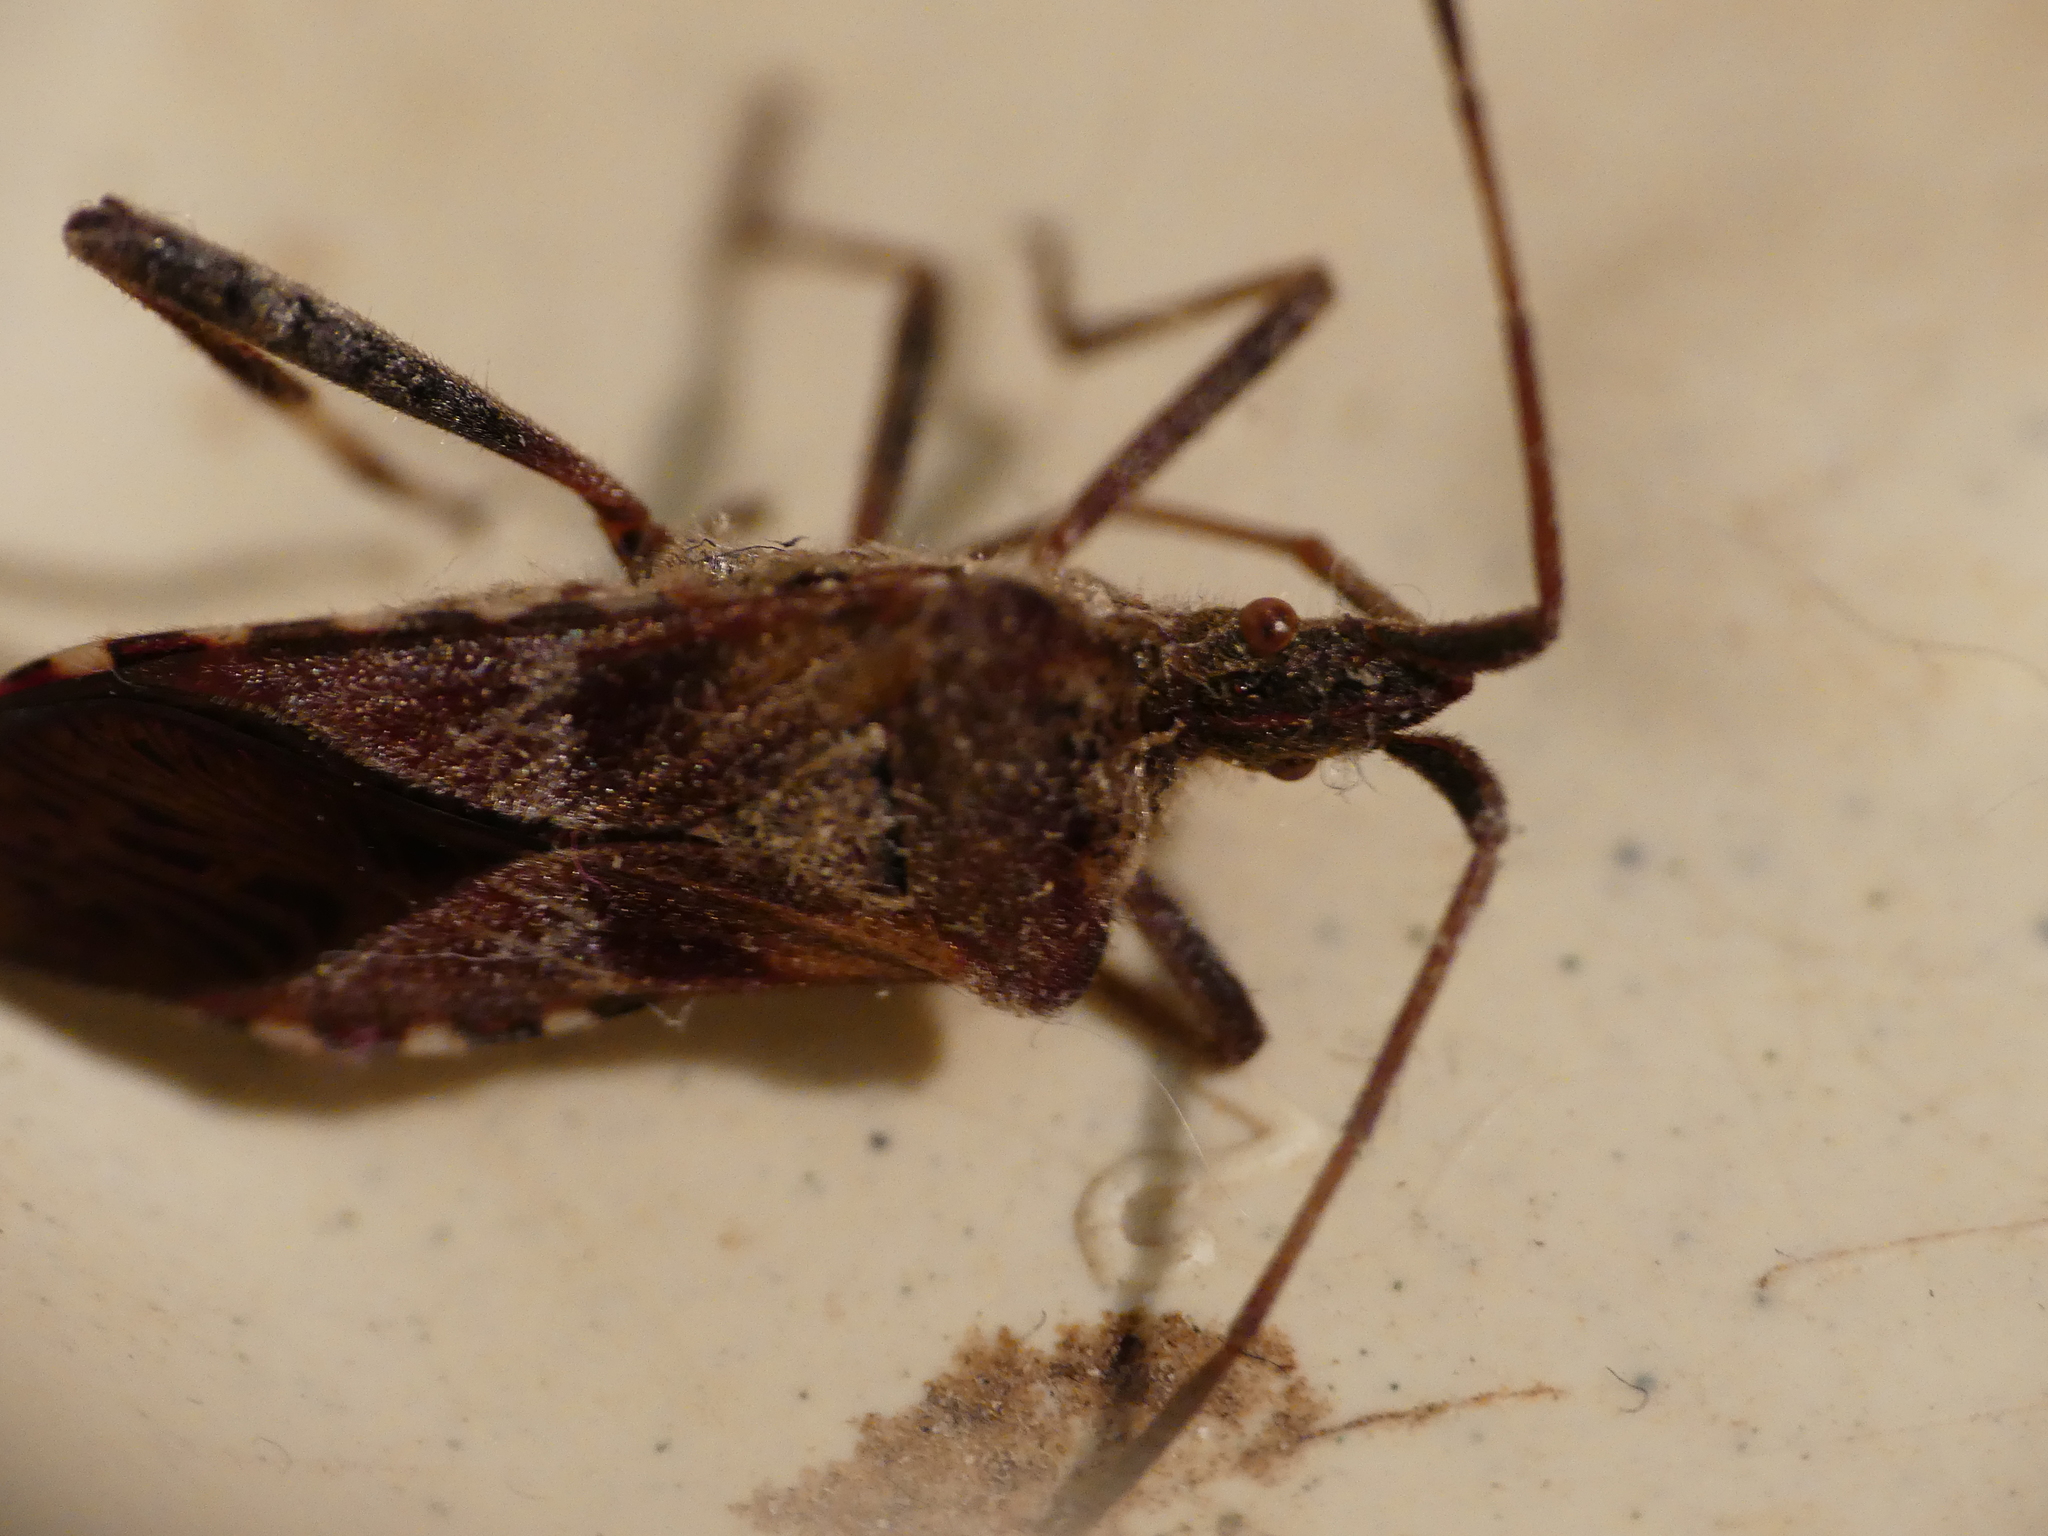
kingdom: Animalia
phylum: Arthropoda
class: Insecta
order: Hemiptera
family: Coreidae
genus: Leptoglossus
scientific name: Leptoglossus occidentalis
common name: Western conifer-seed bug
